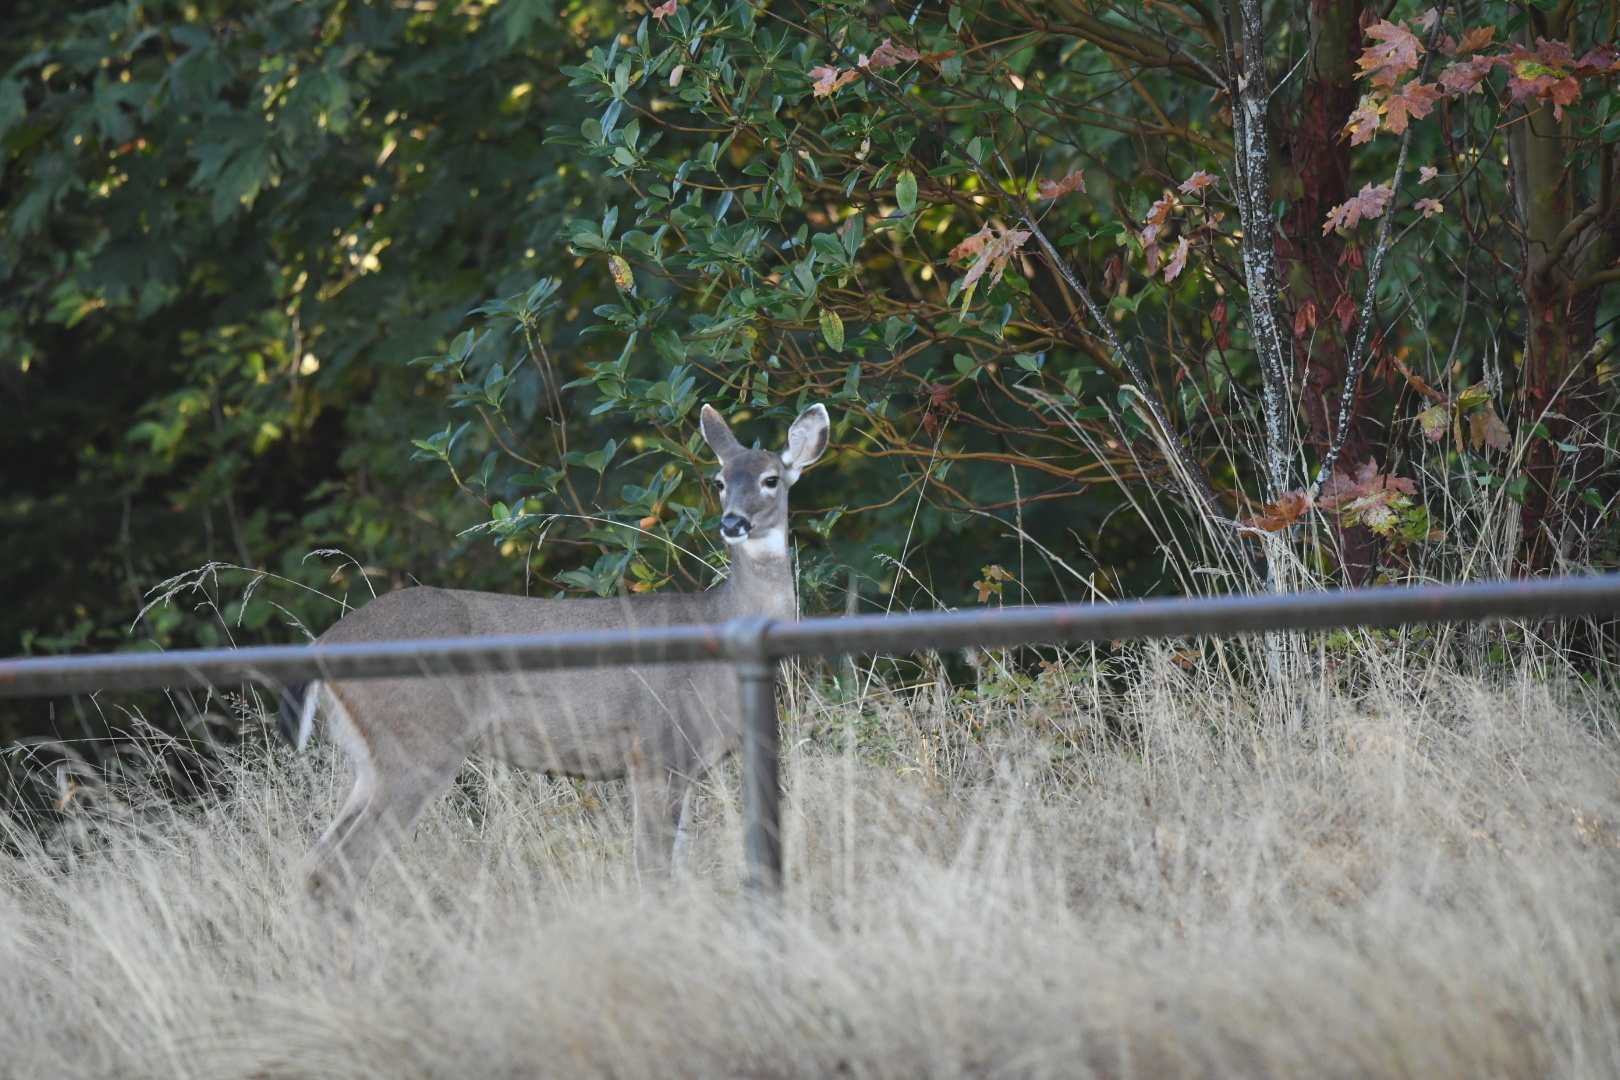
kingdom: Animalia
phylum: Chordata
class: Mammalia
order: Artiodactyla
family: Cervidae
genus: Odocoileus
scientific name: Odocoileus hemionus
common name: Mule deer
